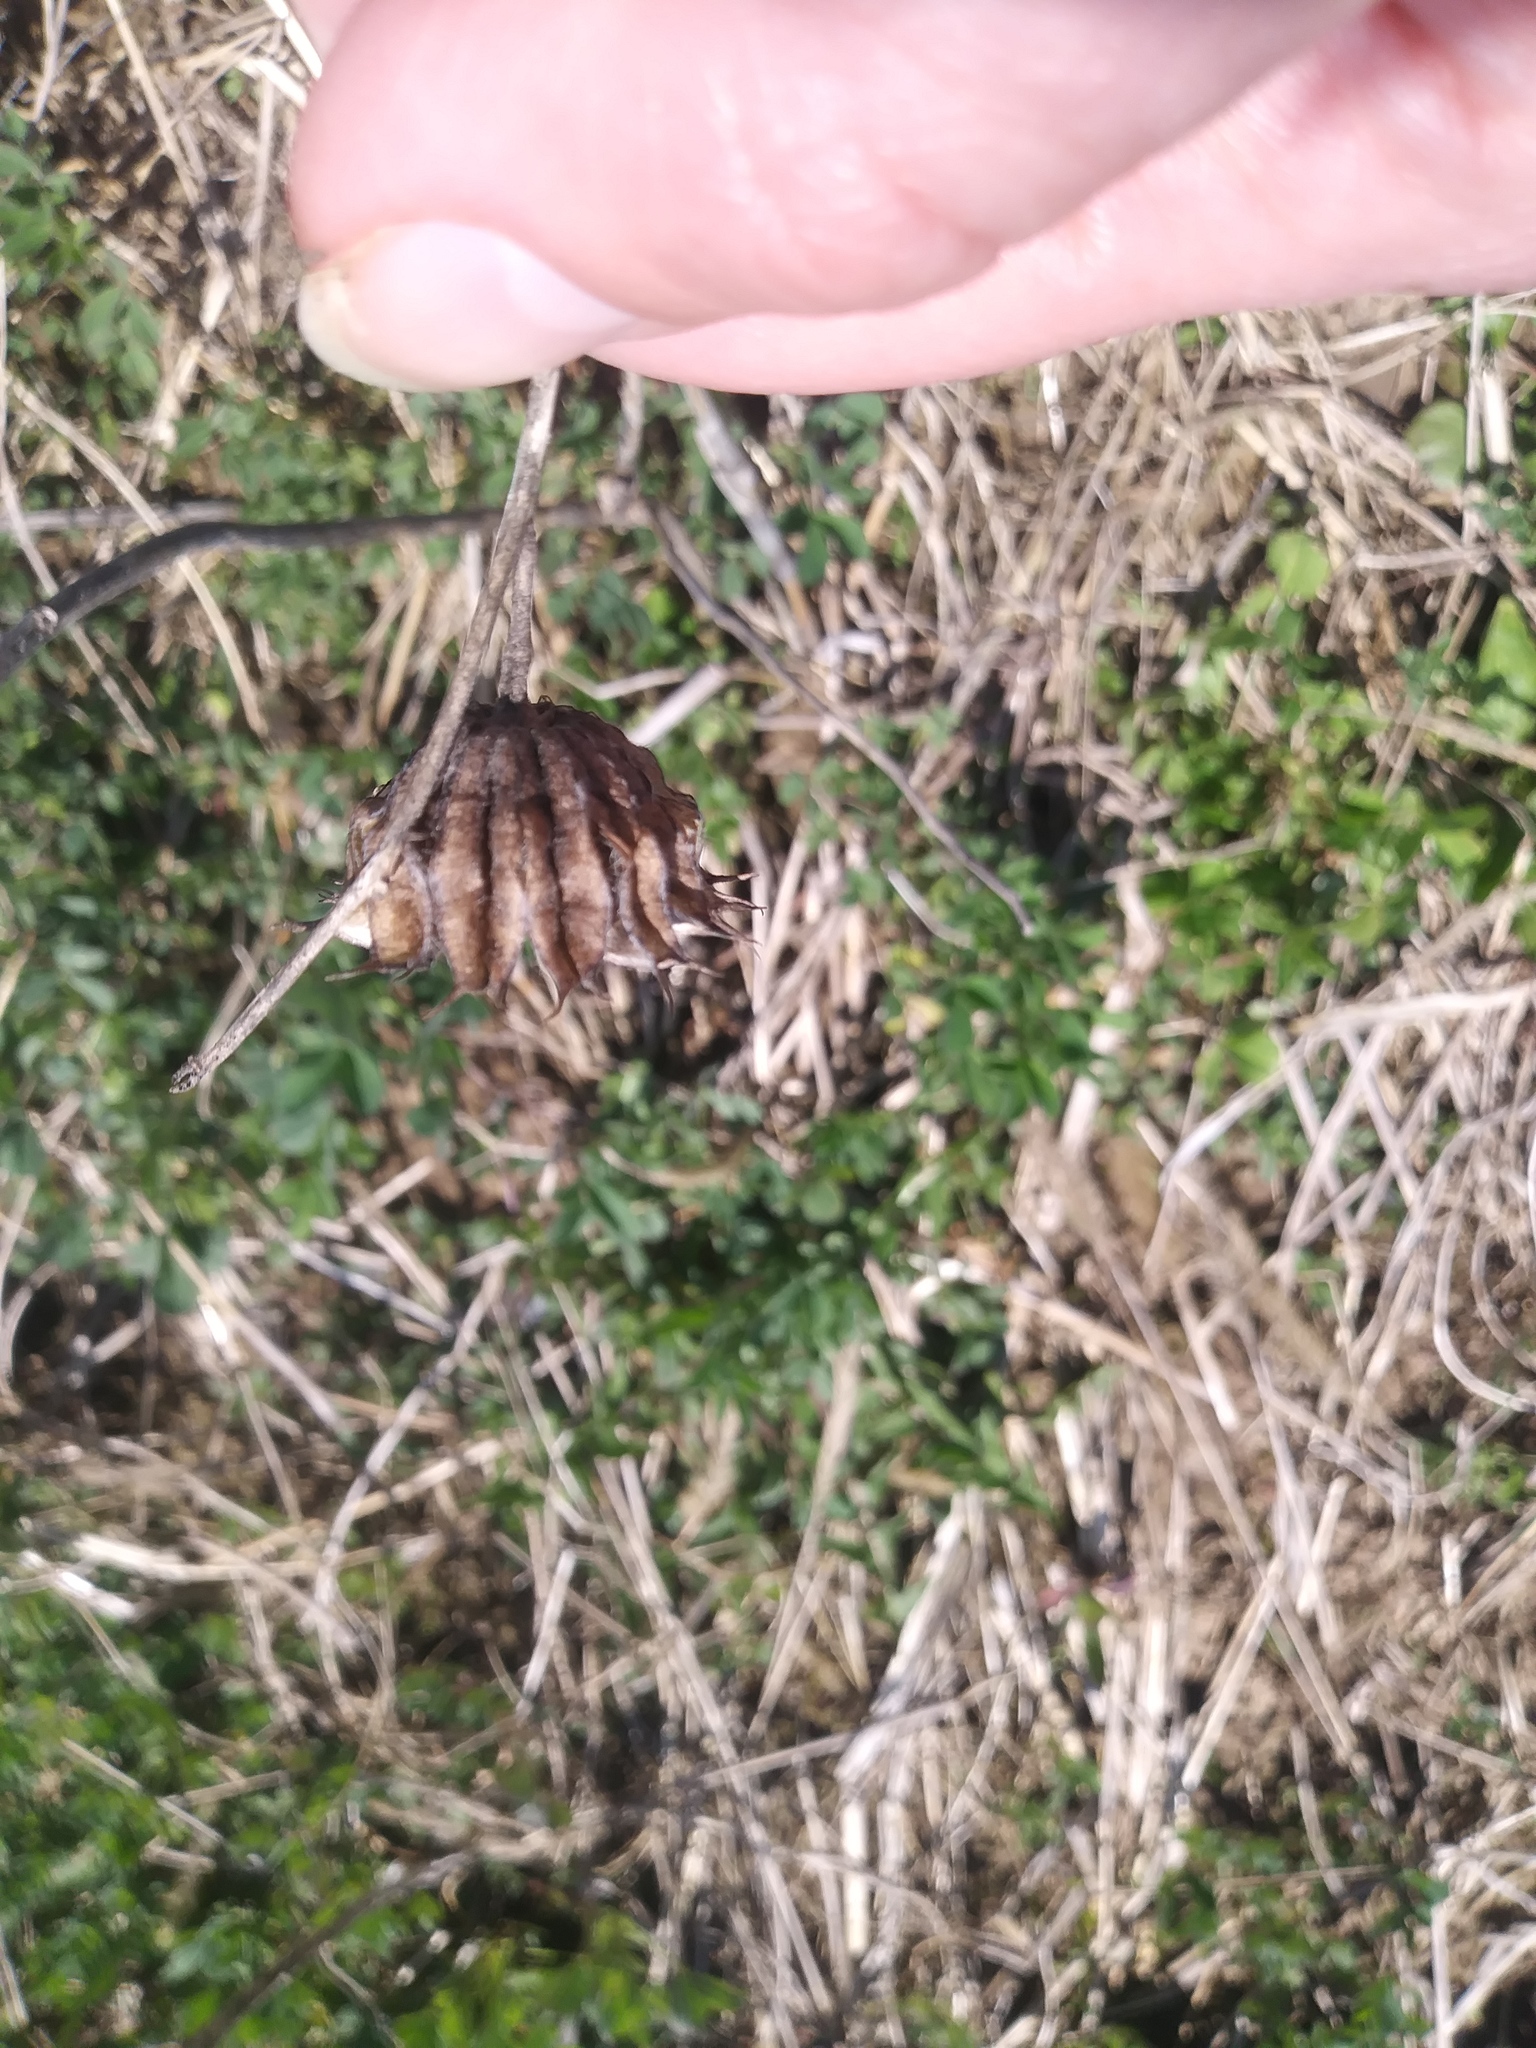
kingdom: Plantae
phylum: Tracheophyta
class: Magnoliopsida
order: Malvales
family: Malvaceae
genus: Abutilon
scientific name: Abutilon theophrasti
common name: Velvetleaf
